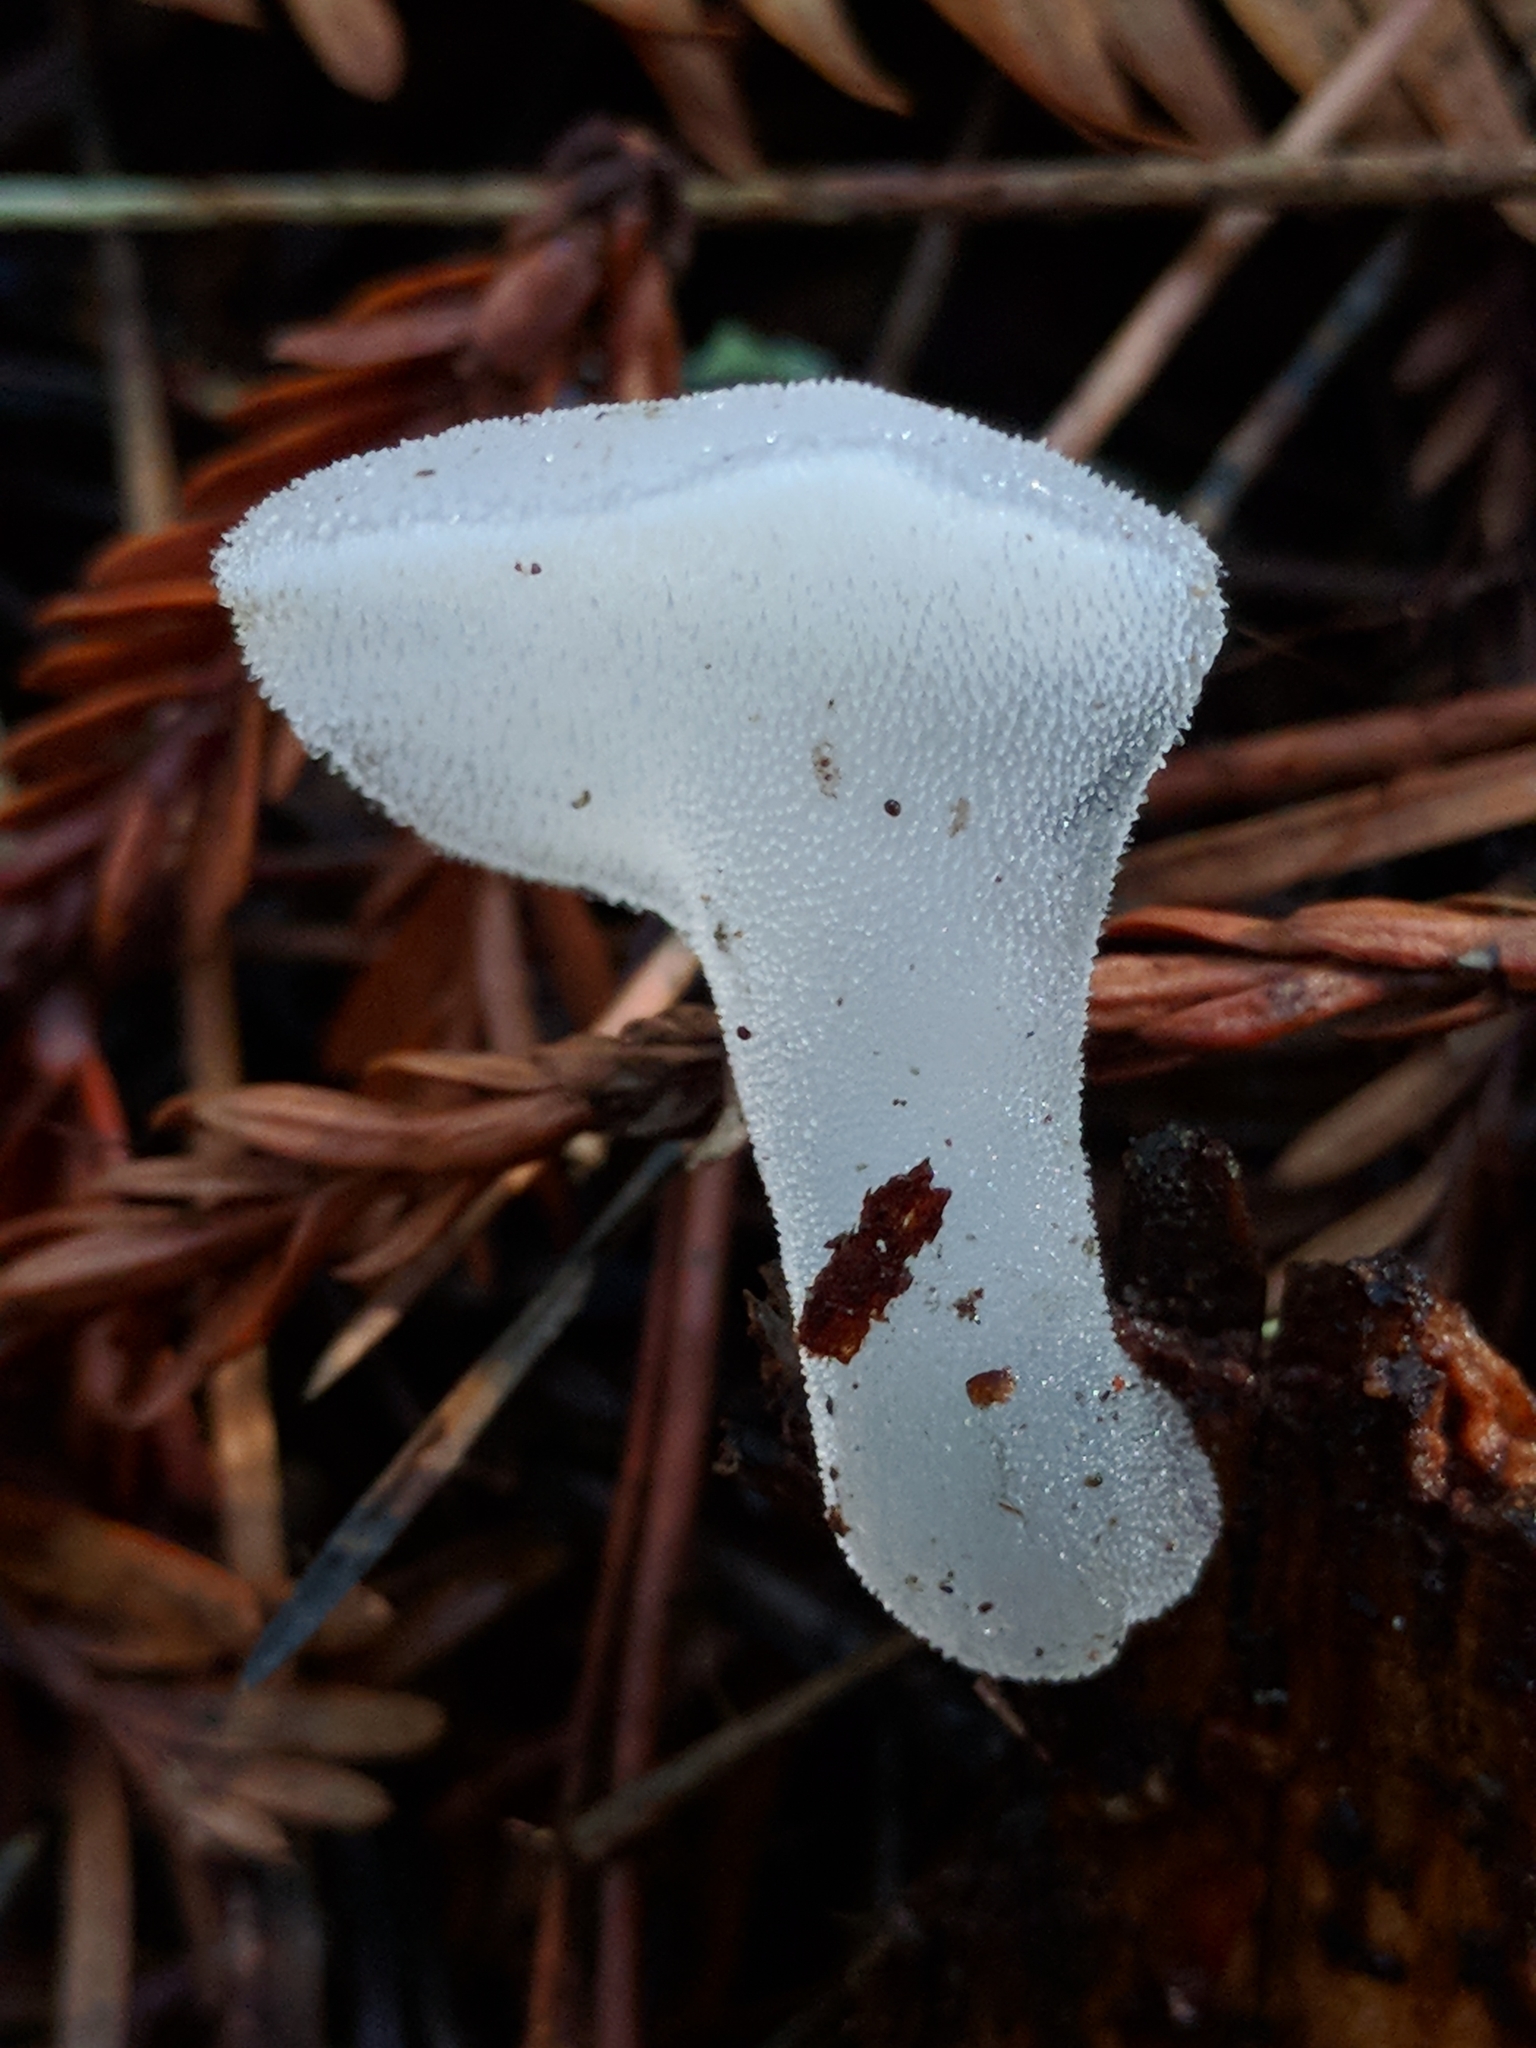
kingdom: Fungi
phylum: Basidiomycota
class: Agaricomycetes
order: Auriculariales
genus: Pseudohydnum
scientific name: Pseudohydnum gelatinosum
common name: Jelly tongue
